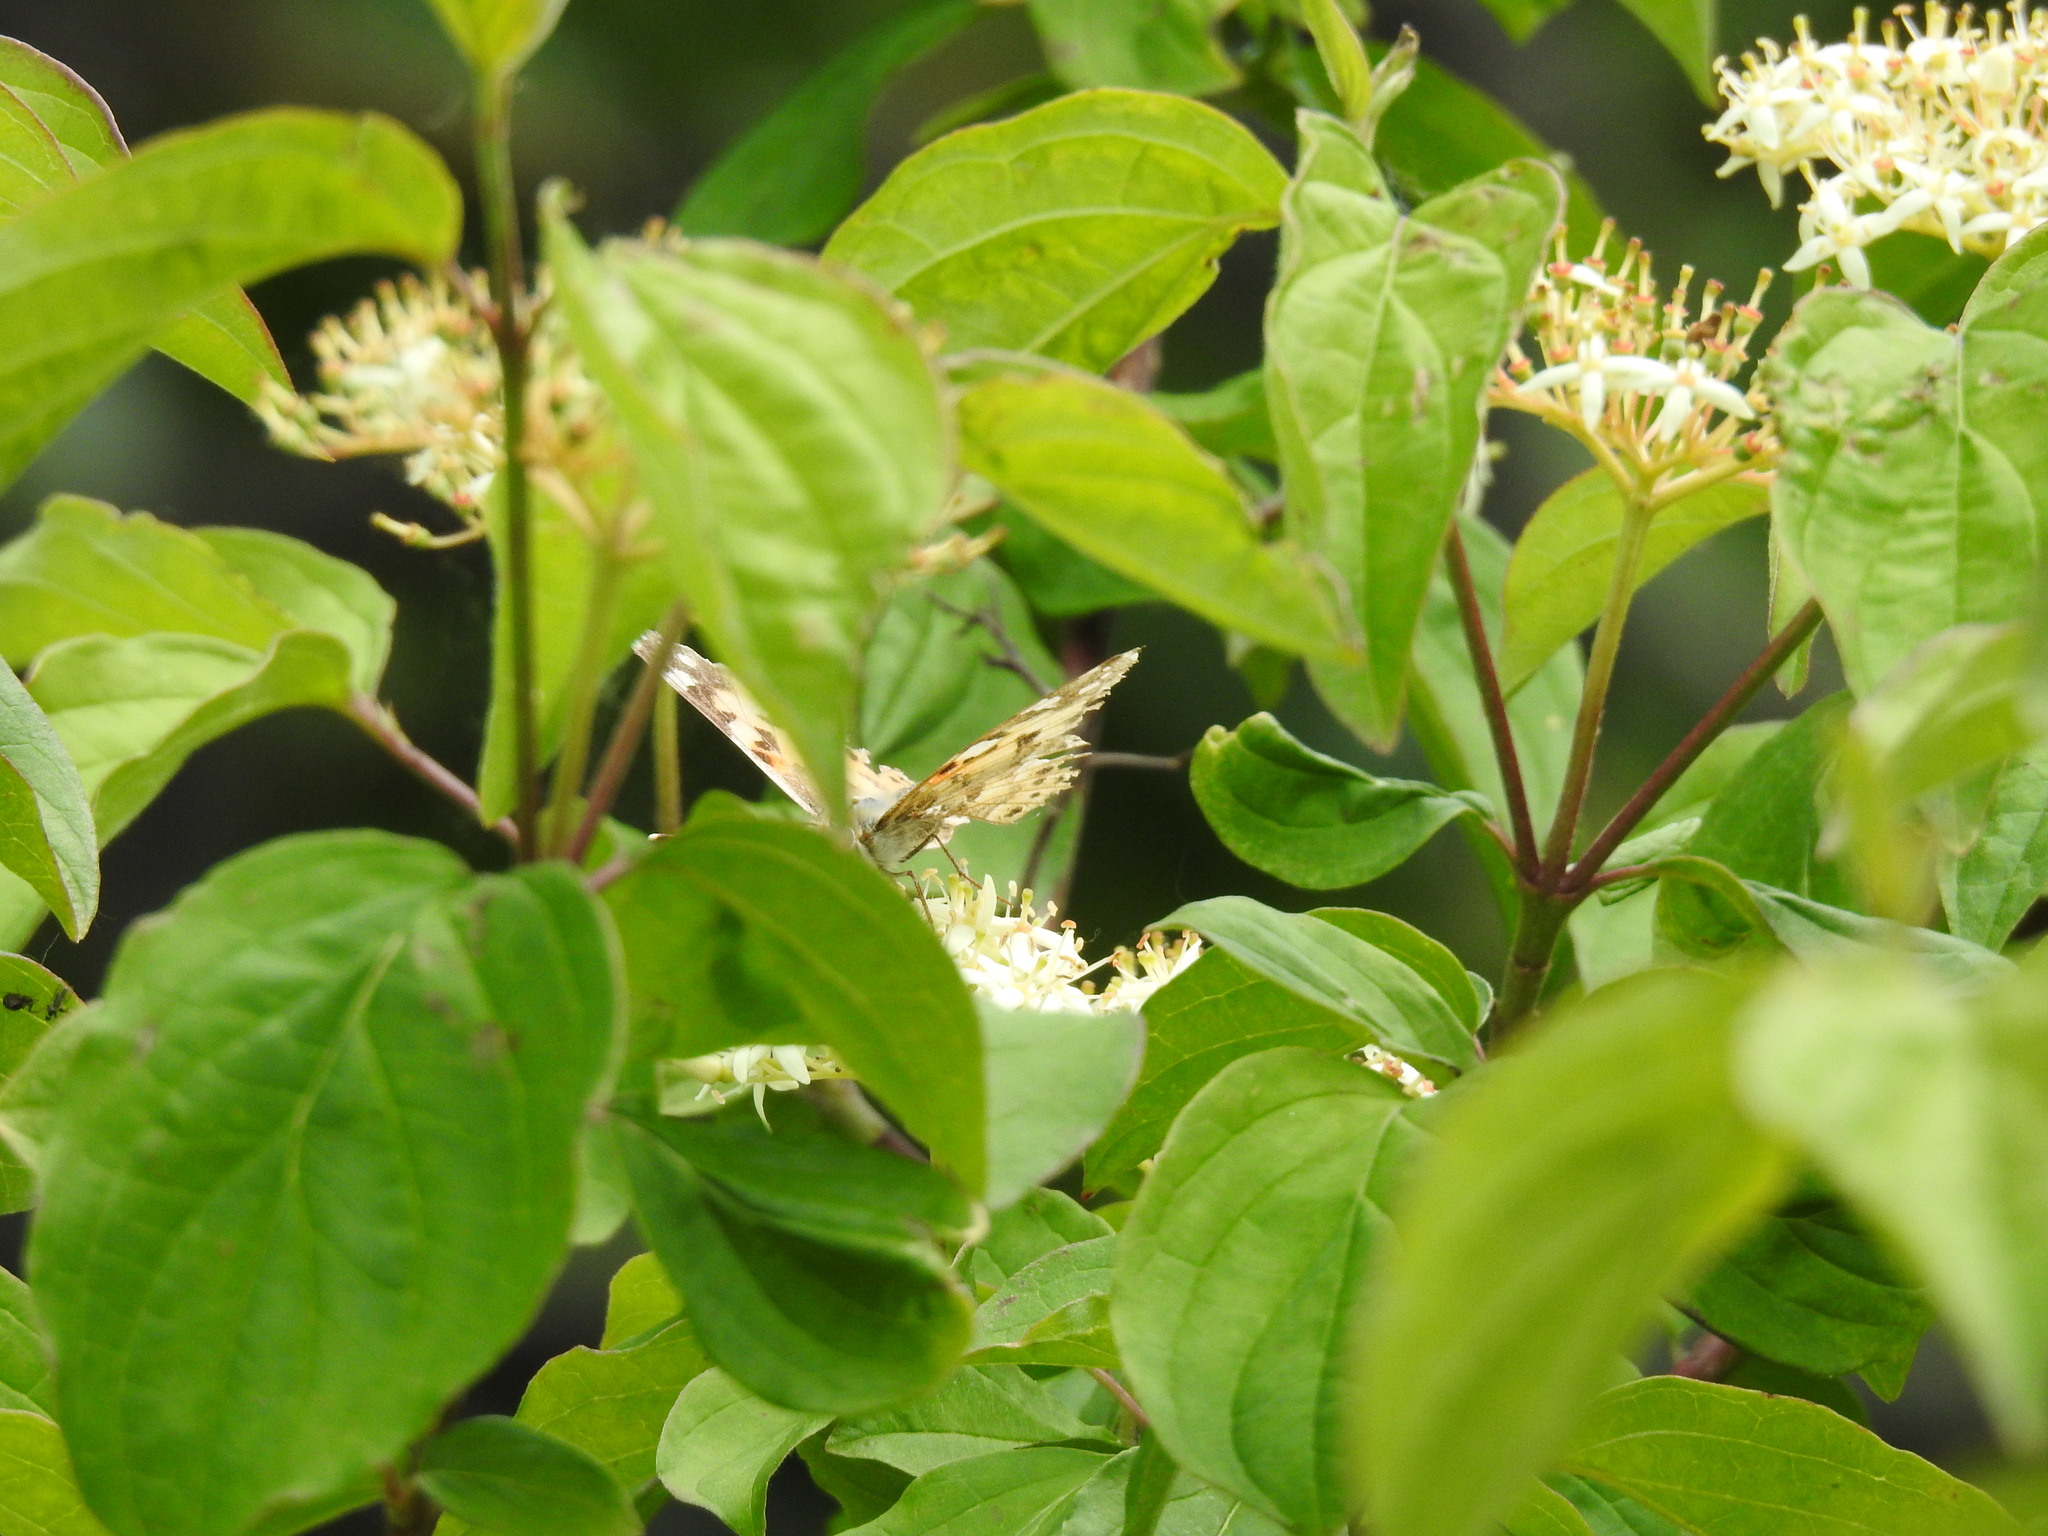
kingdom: Animalia
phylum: Arthropoda
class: Insecta
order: Lepidoptera
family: Nymphalidae
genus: Vanessa
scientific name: Vanessa cardui
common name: Painted lady
